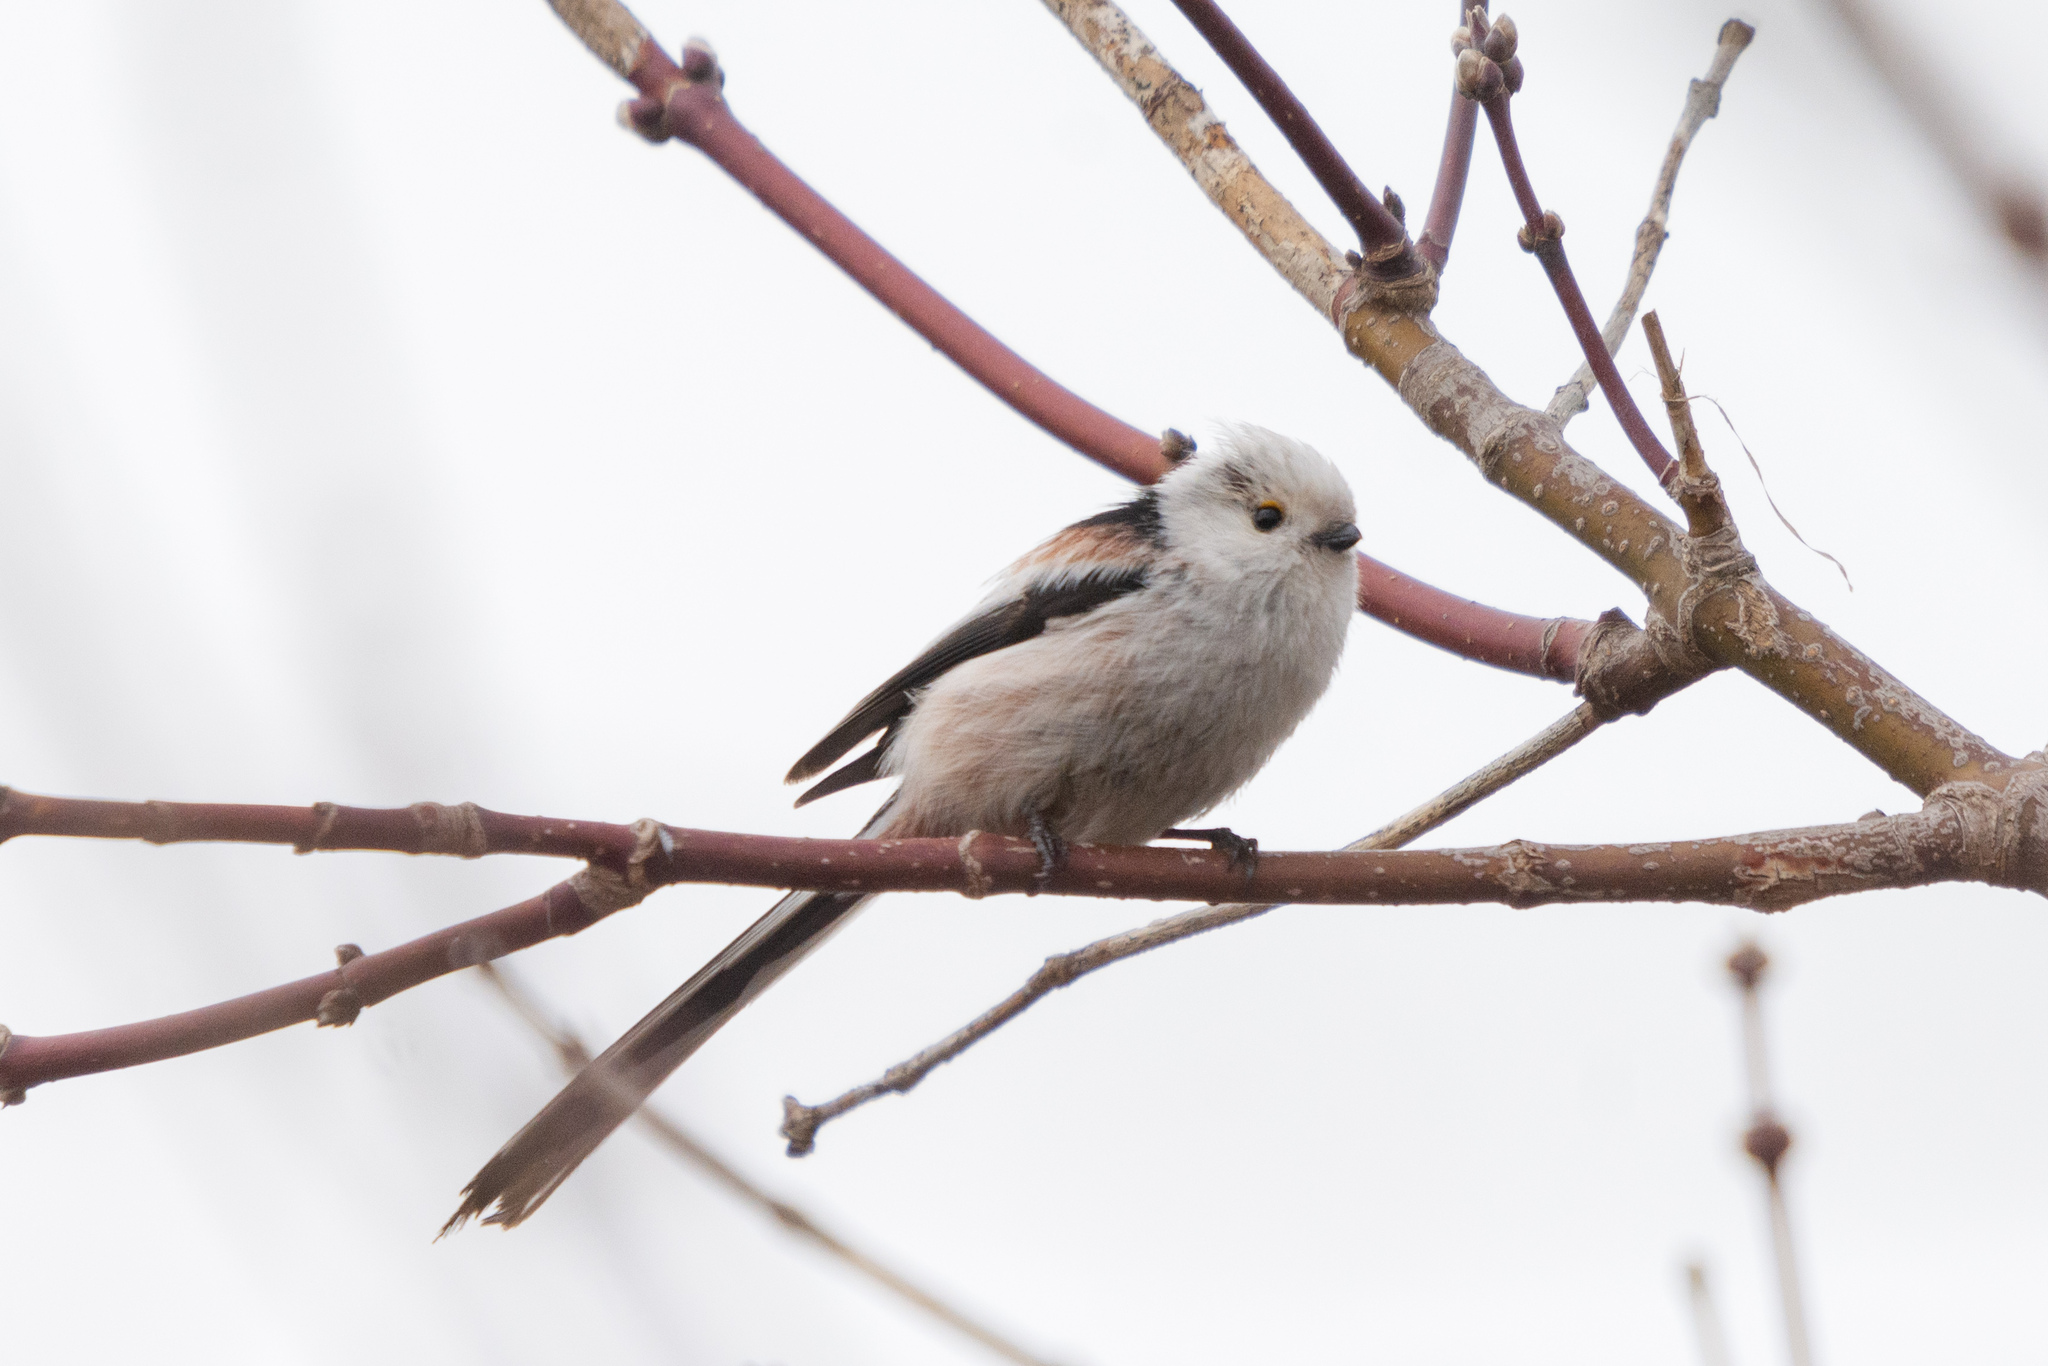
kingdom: Animalia
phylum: Chordata
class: Aves
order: Passeriformes
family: Aegithalidae
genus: Aegithalos
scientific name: Aegithalos caudatus
